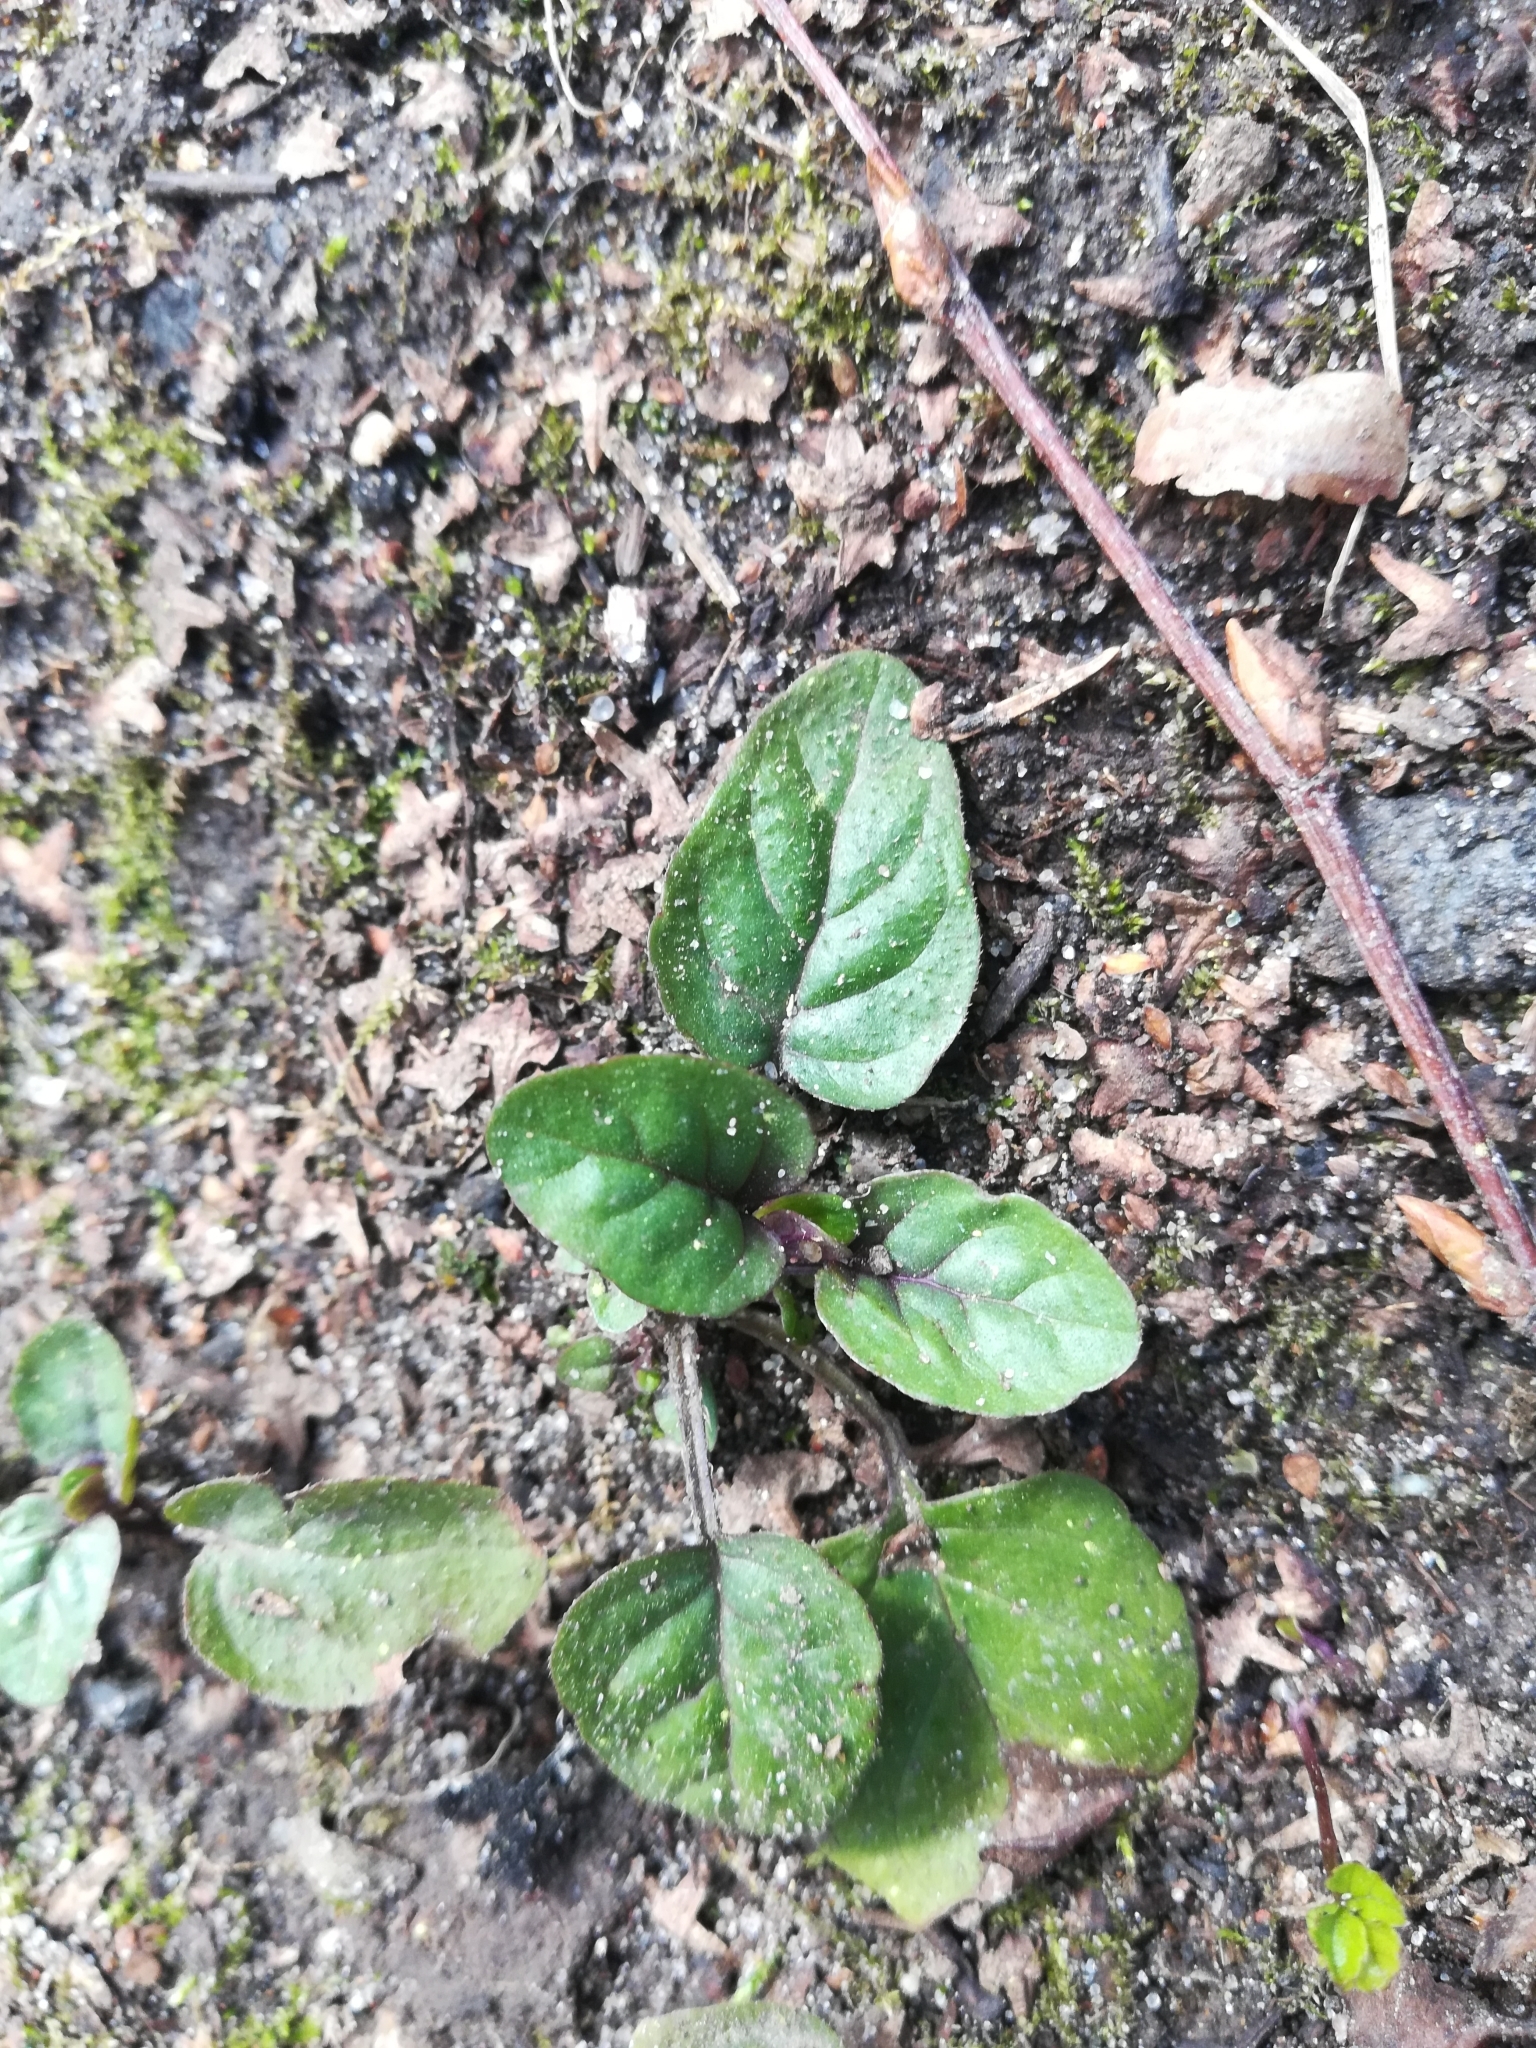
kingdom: Plantae
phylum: Tracheophyta
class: Magnoliopsida
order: Lamiales
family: Lamiaceae
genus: Prunella
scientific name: Prunella vulgaris
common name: Heal-all
